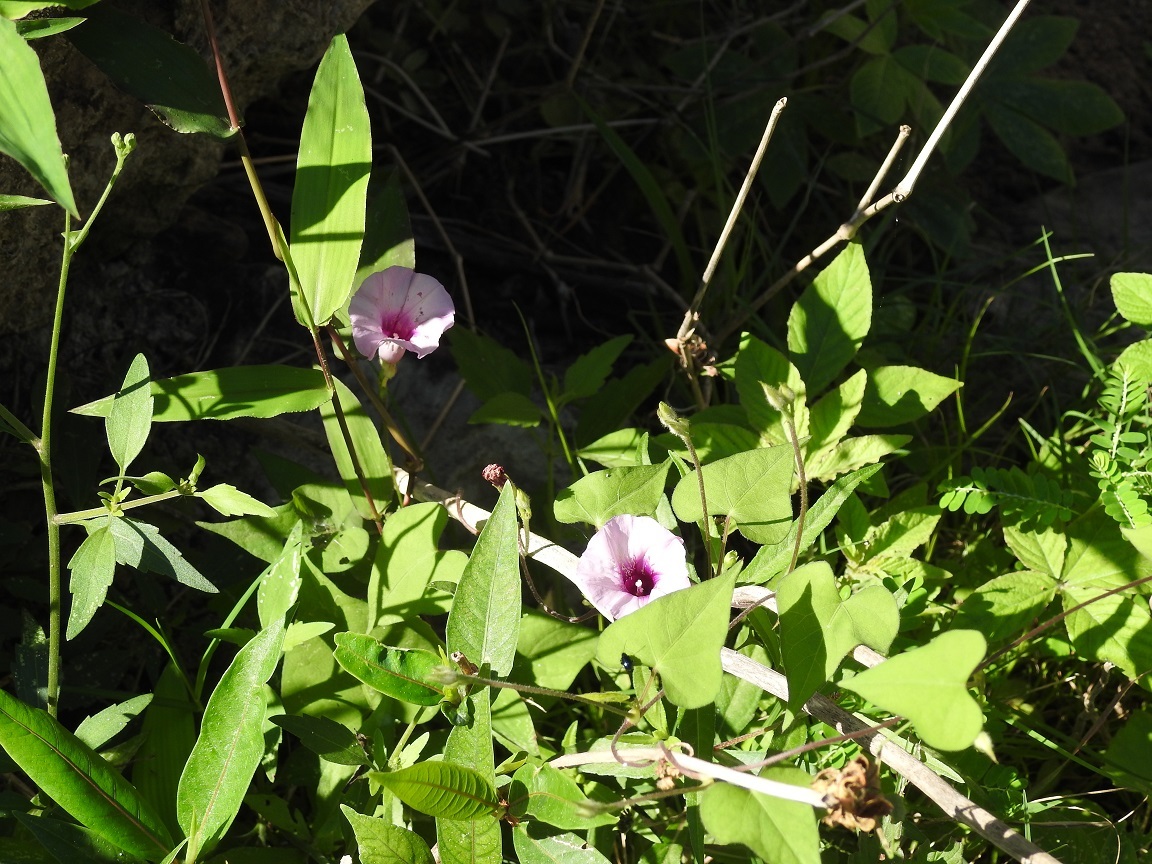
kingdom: Plantae
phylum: Tracheophyta
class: Magnoliopsida
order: Solanales
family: Convolvulaceae
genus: Ipomoea
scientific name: Ipomoea trifida
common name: Cotton morningglory
